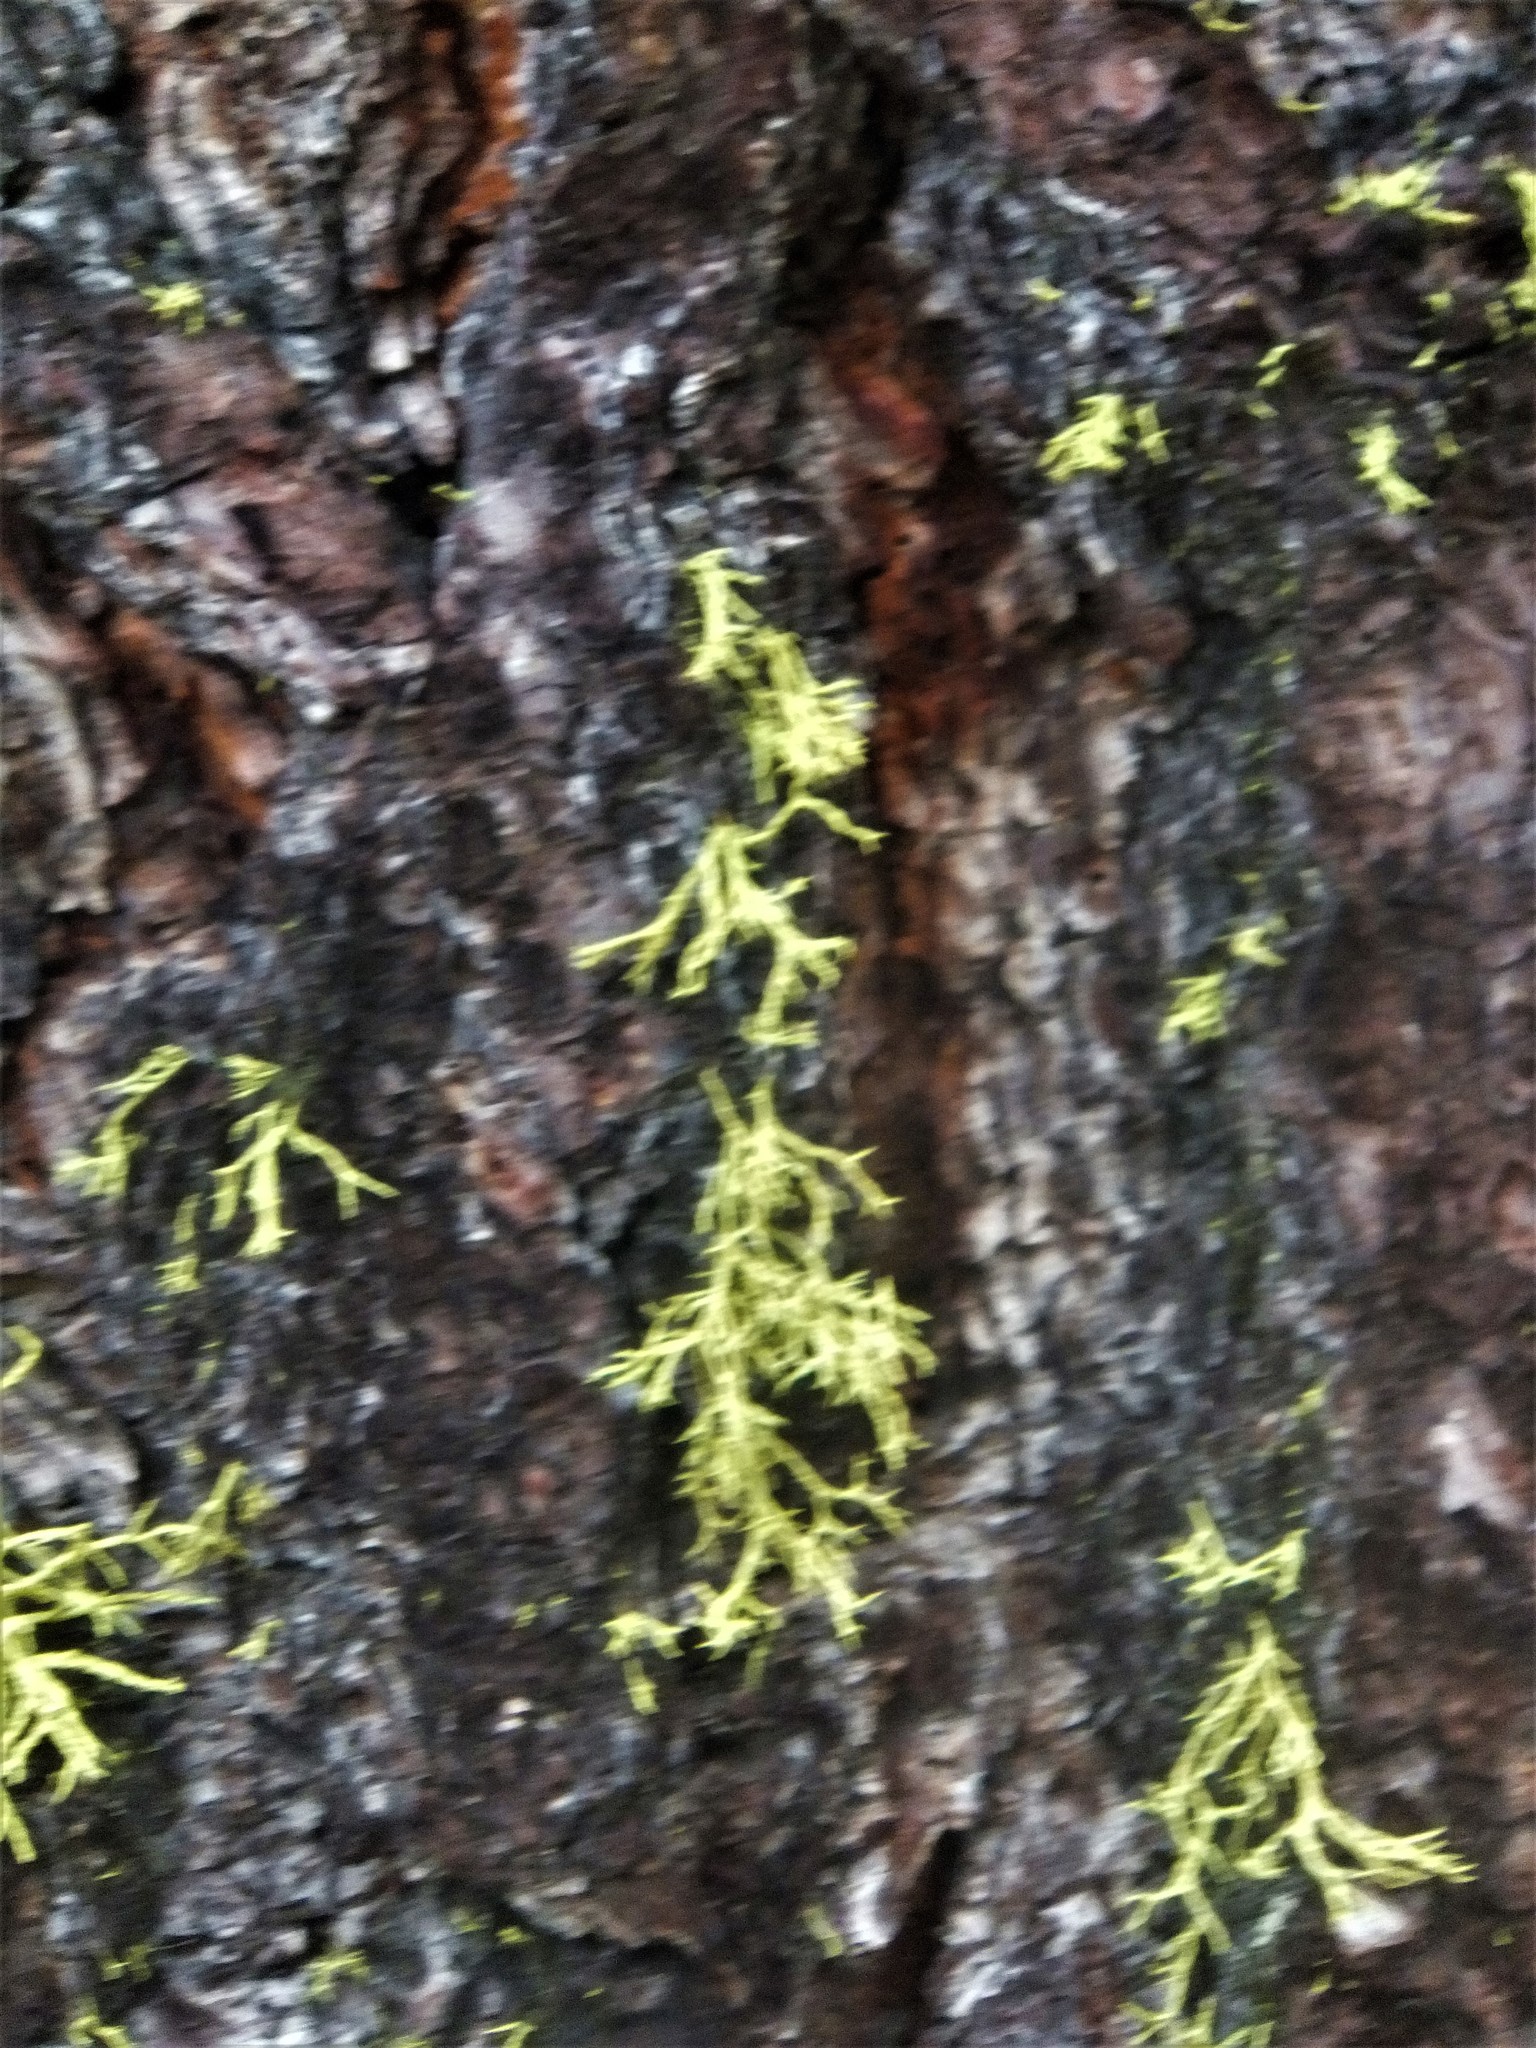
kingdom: Fungi
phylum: Ascomycota
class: Lecanoromycetes
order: Lecanorales
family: Parmeliaceae
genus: Letharia
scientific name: Letharia vulpina
